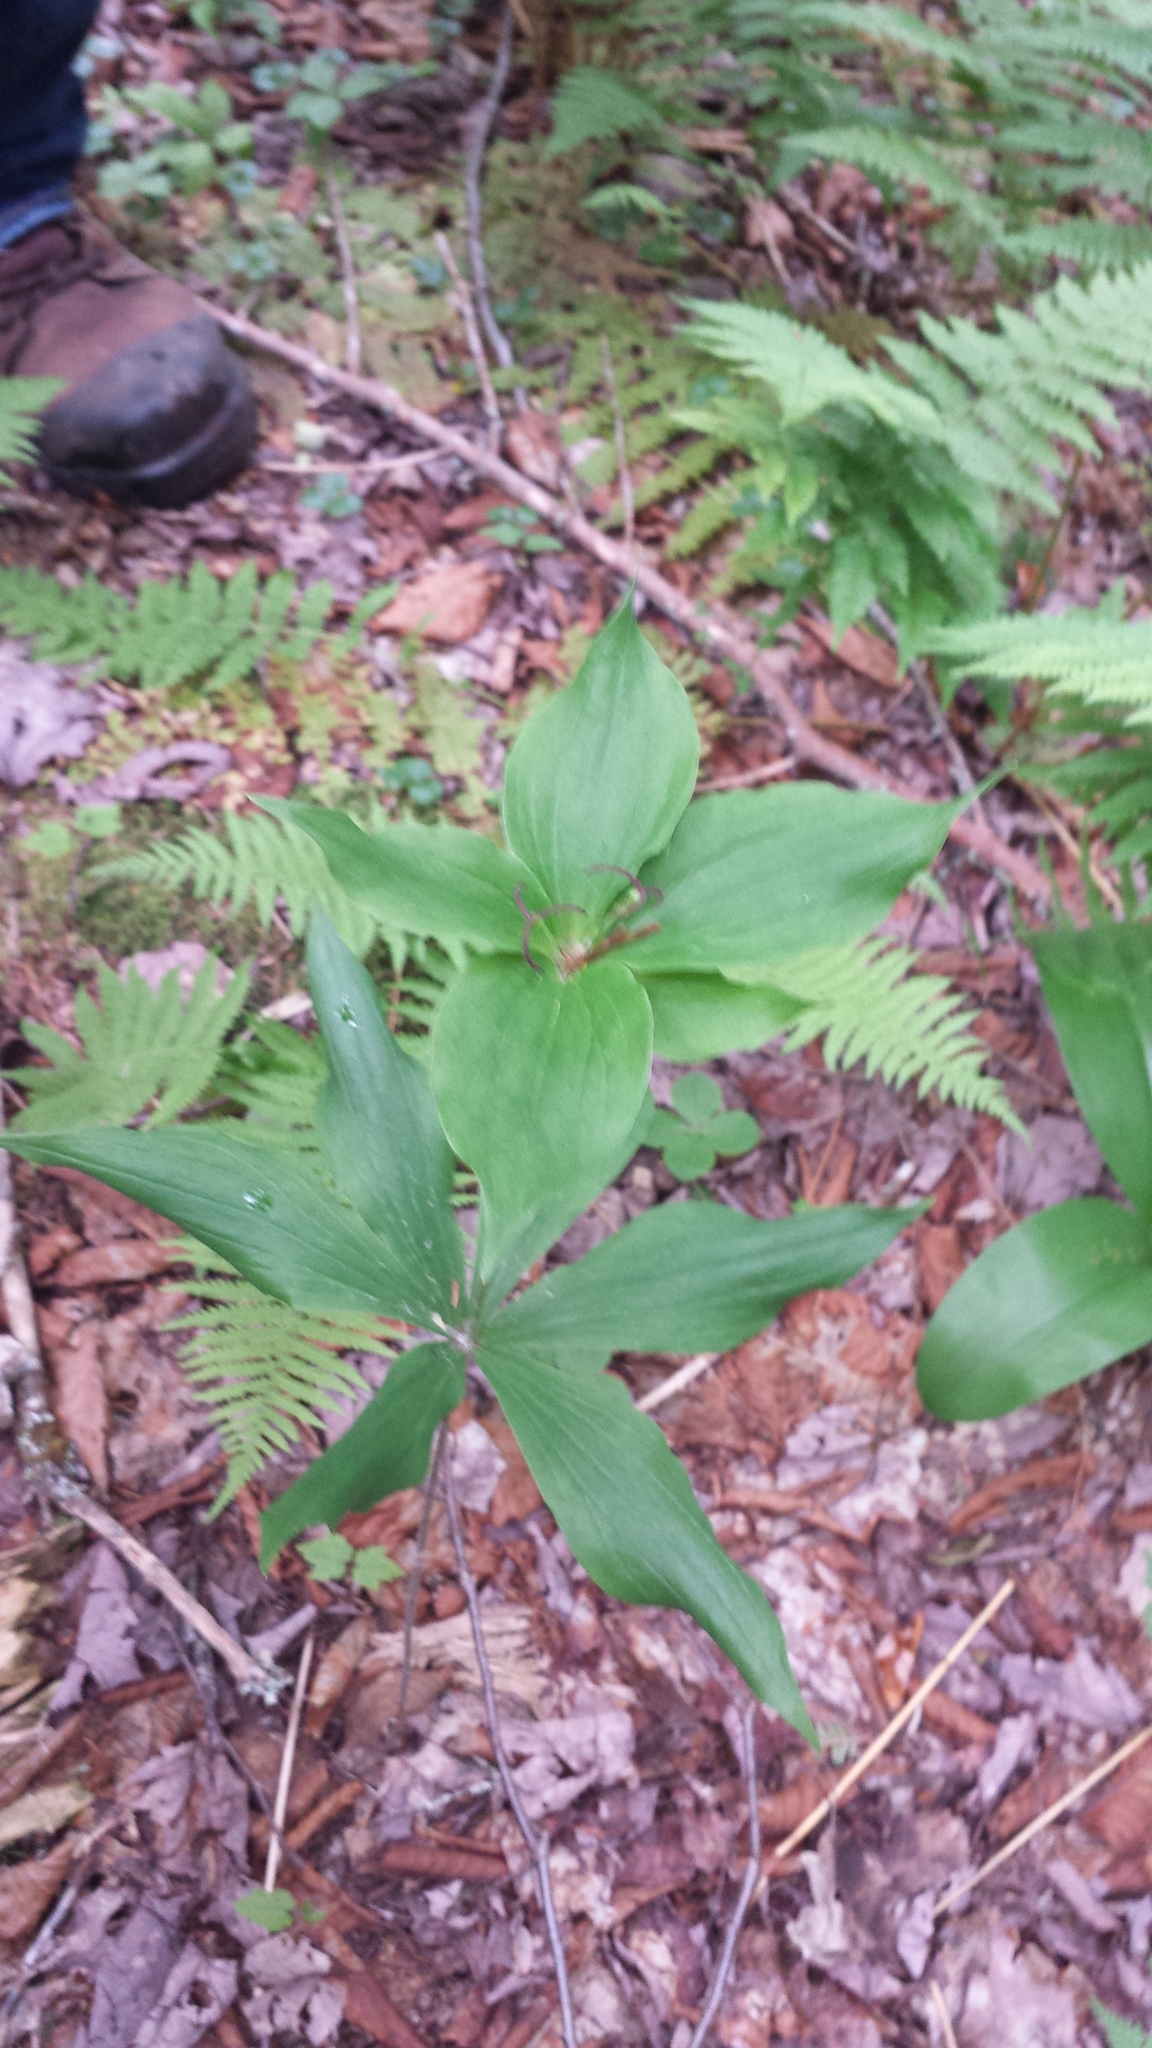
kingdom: Plantae
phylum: Tracheophyta
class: Liliopsida
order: Liliales
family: Liliaceae
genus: Medeola
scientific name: Medeola virginiana
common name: Indian cucumber-root
